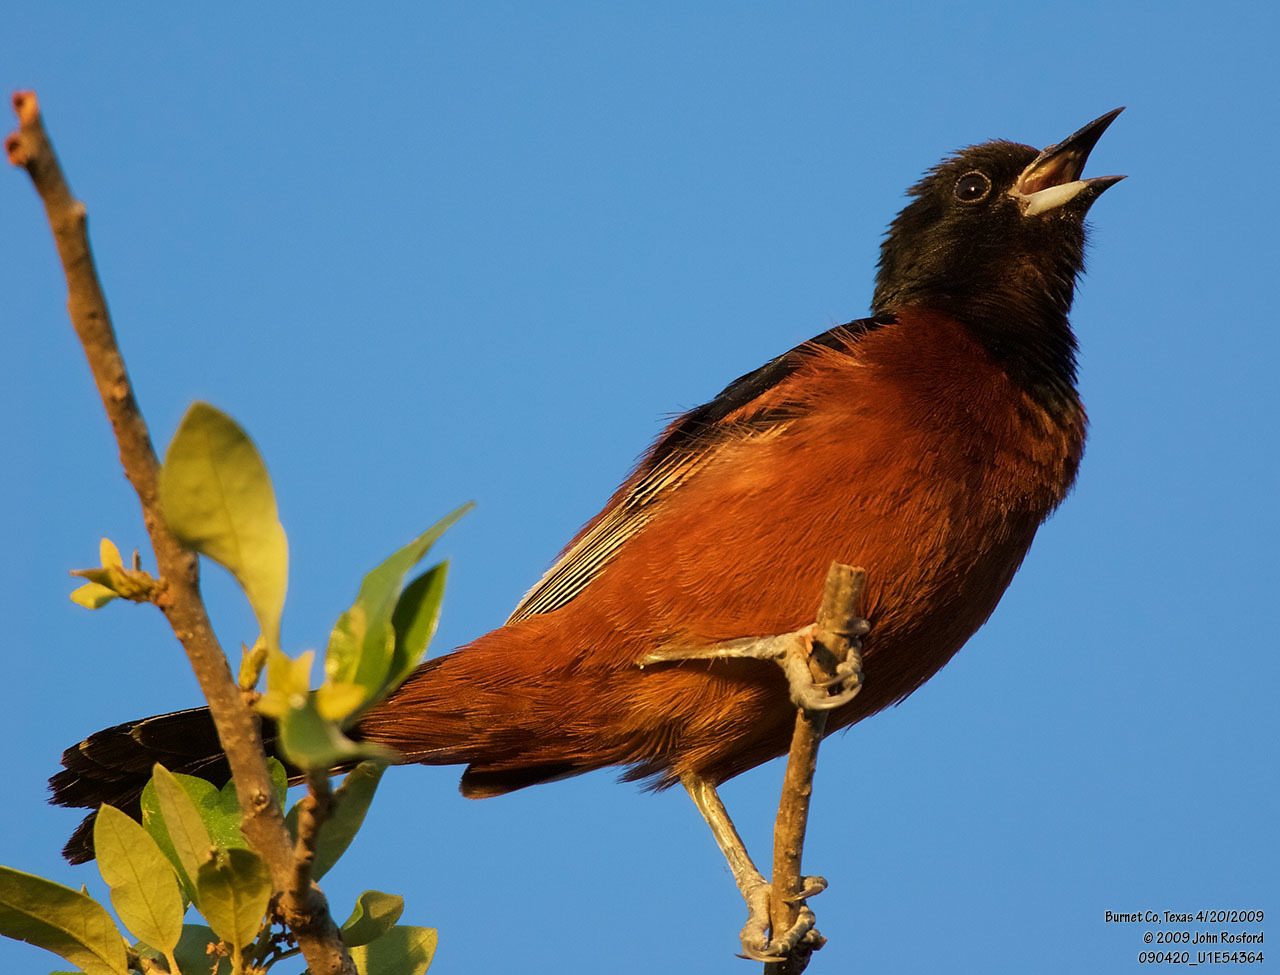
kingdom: Animalia
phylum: Chordata
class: Aves
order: Passeriformes
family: Icteridae
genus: Icterus
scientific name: Icterus spurius
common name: Orchard oriole
